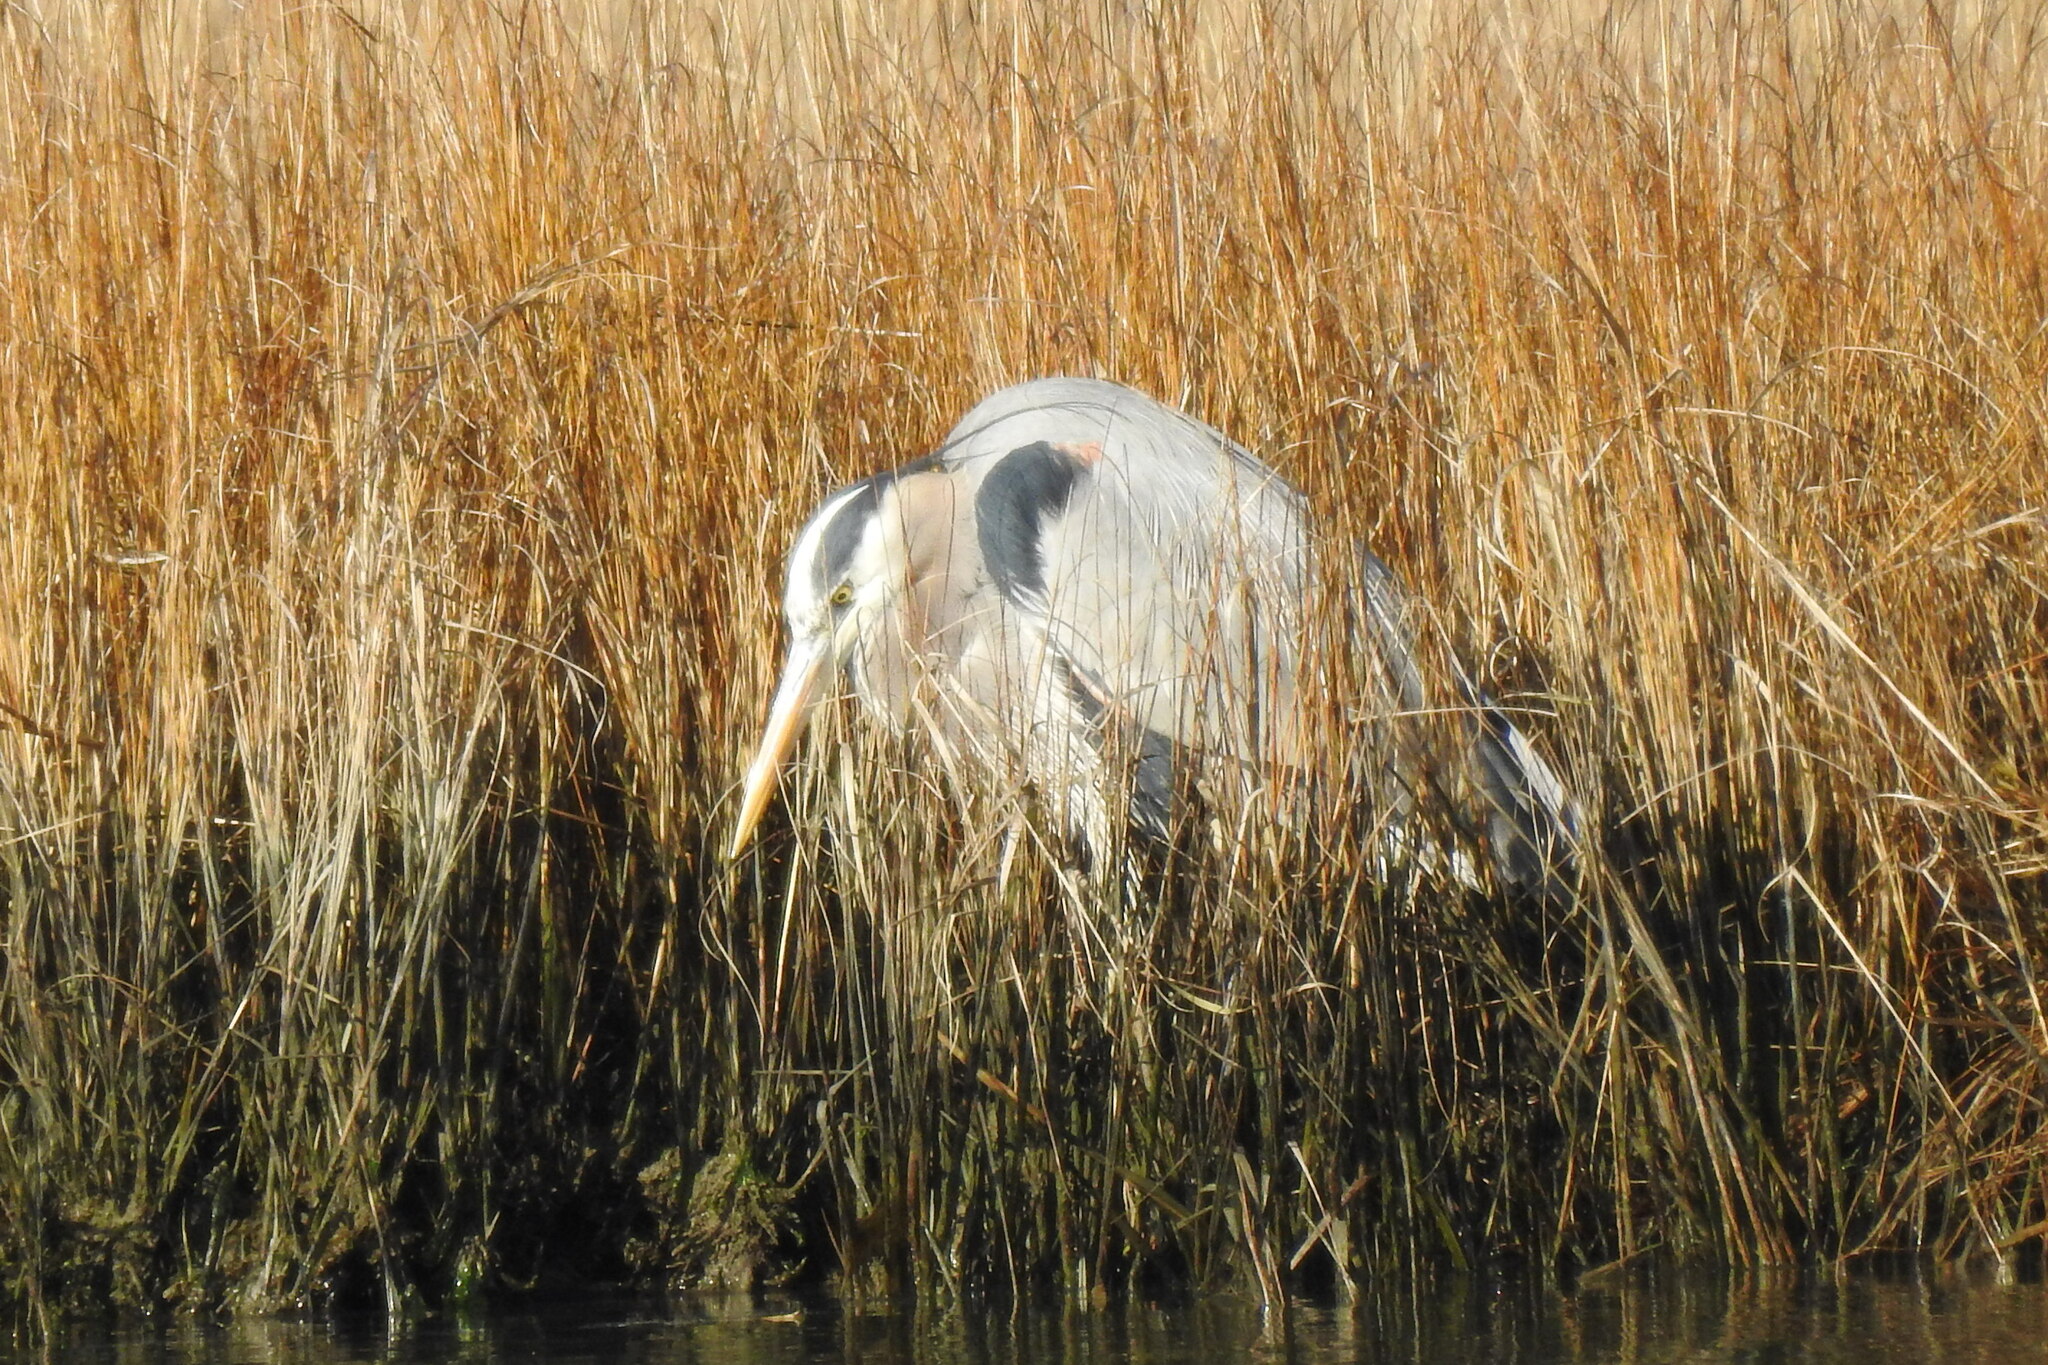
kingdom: Animalia
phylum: Chordata
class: Aves
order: Pelecaniformes
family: Ardeidae
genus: Ardea
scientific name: Ardea herodias
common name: Great blue heron
